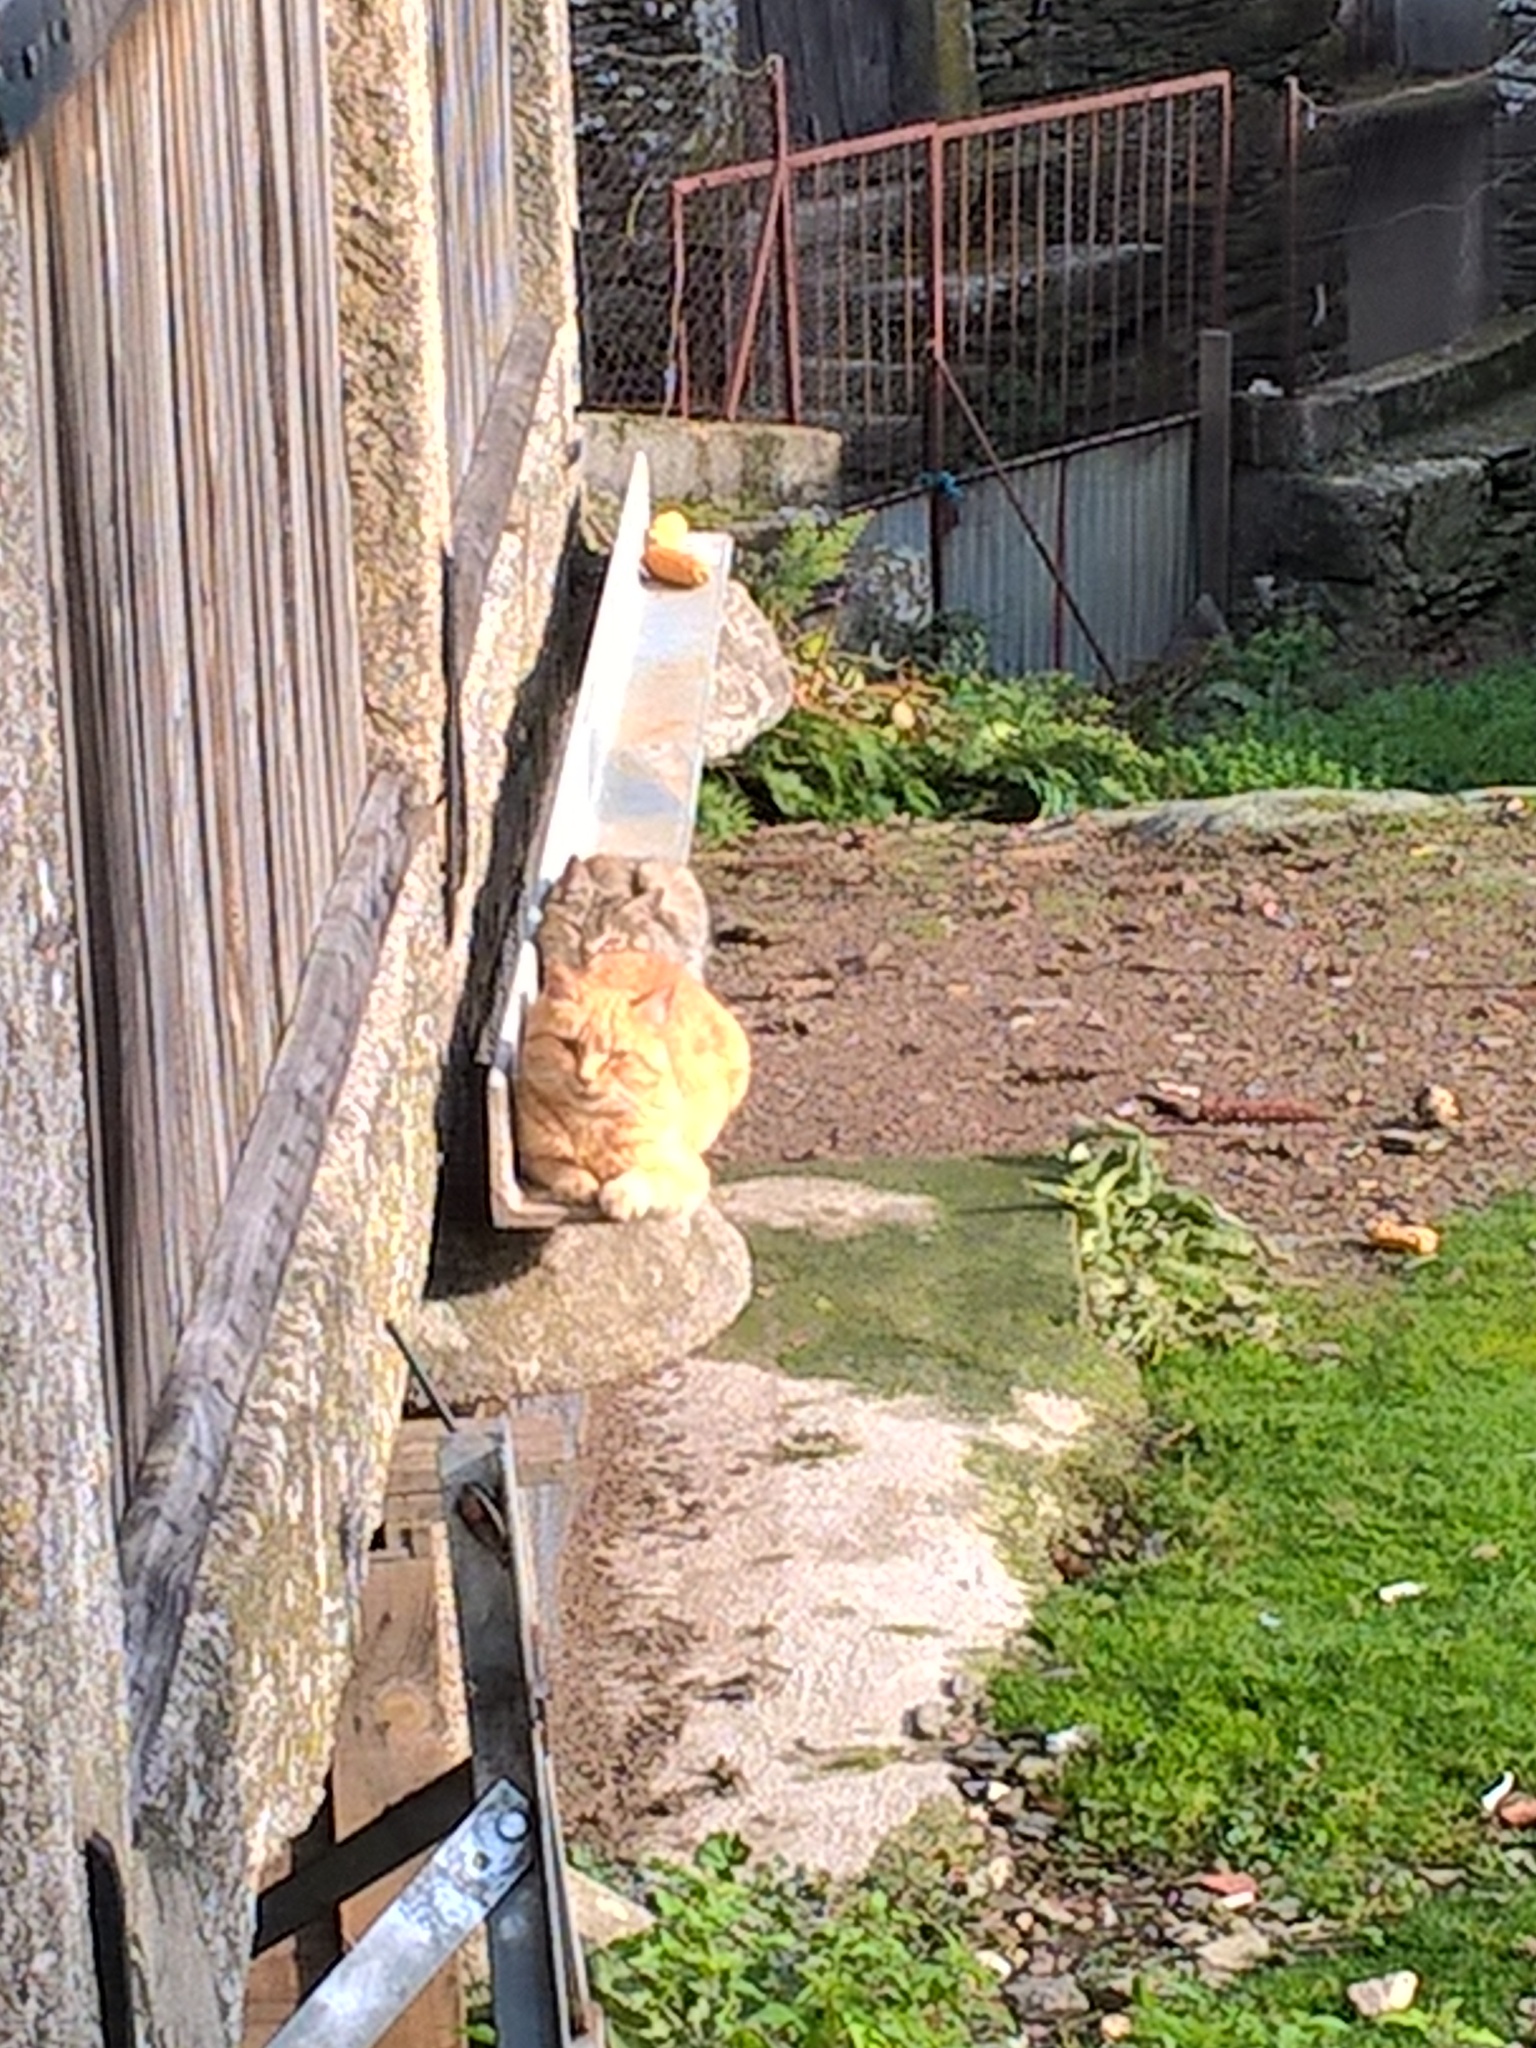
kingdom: Animalia
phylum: Chordata
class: Mammalia
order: Carnivora
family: Felidae
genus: Felis
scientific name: Felis catus
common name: Domestic cat
